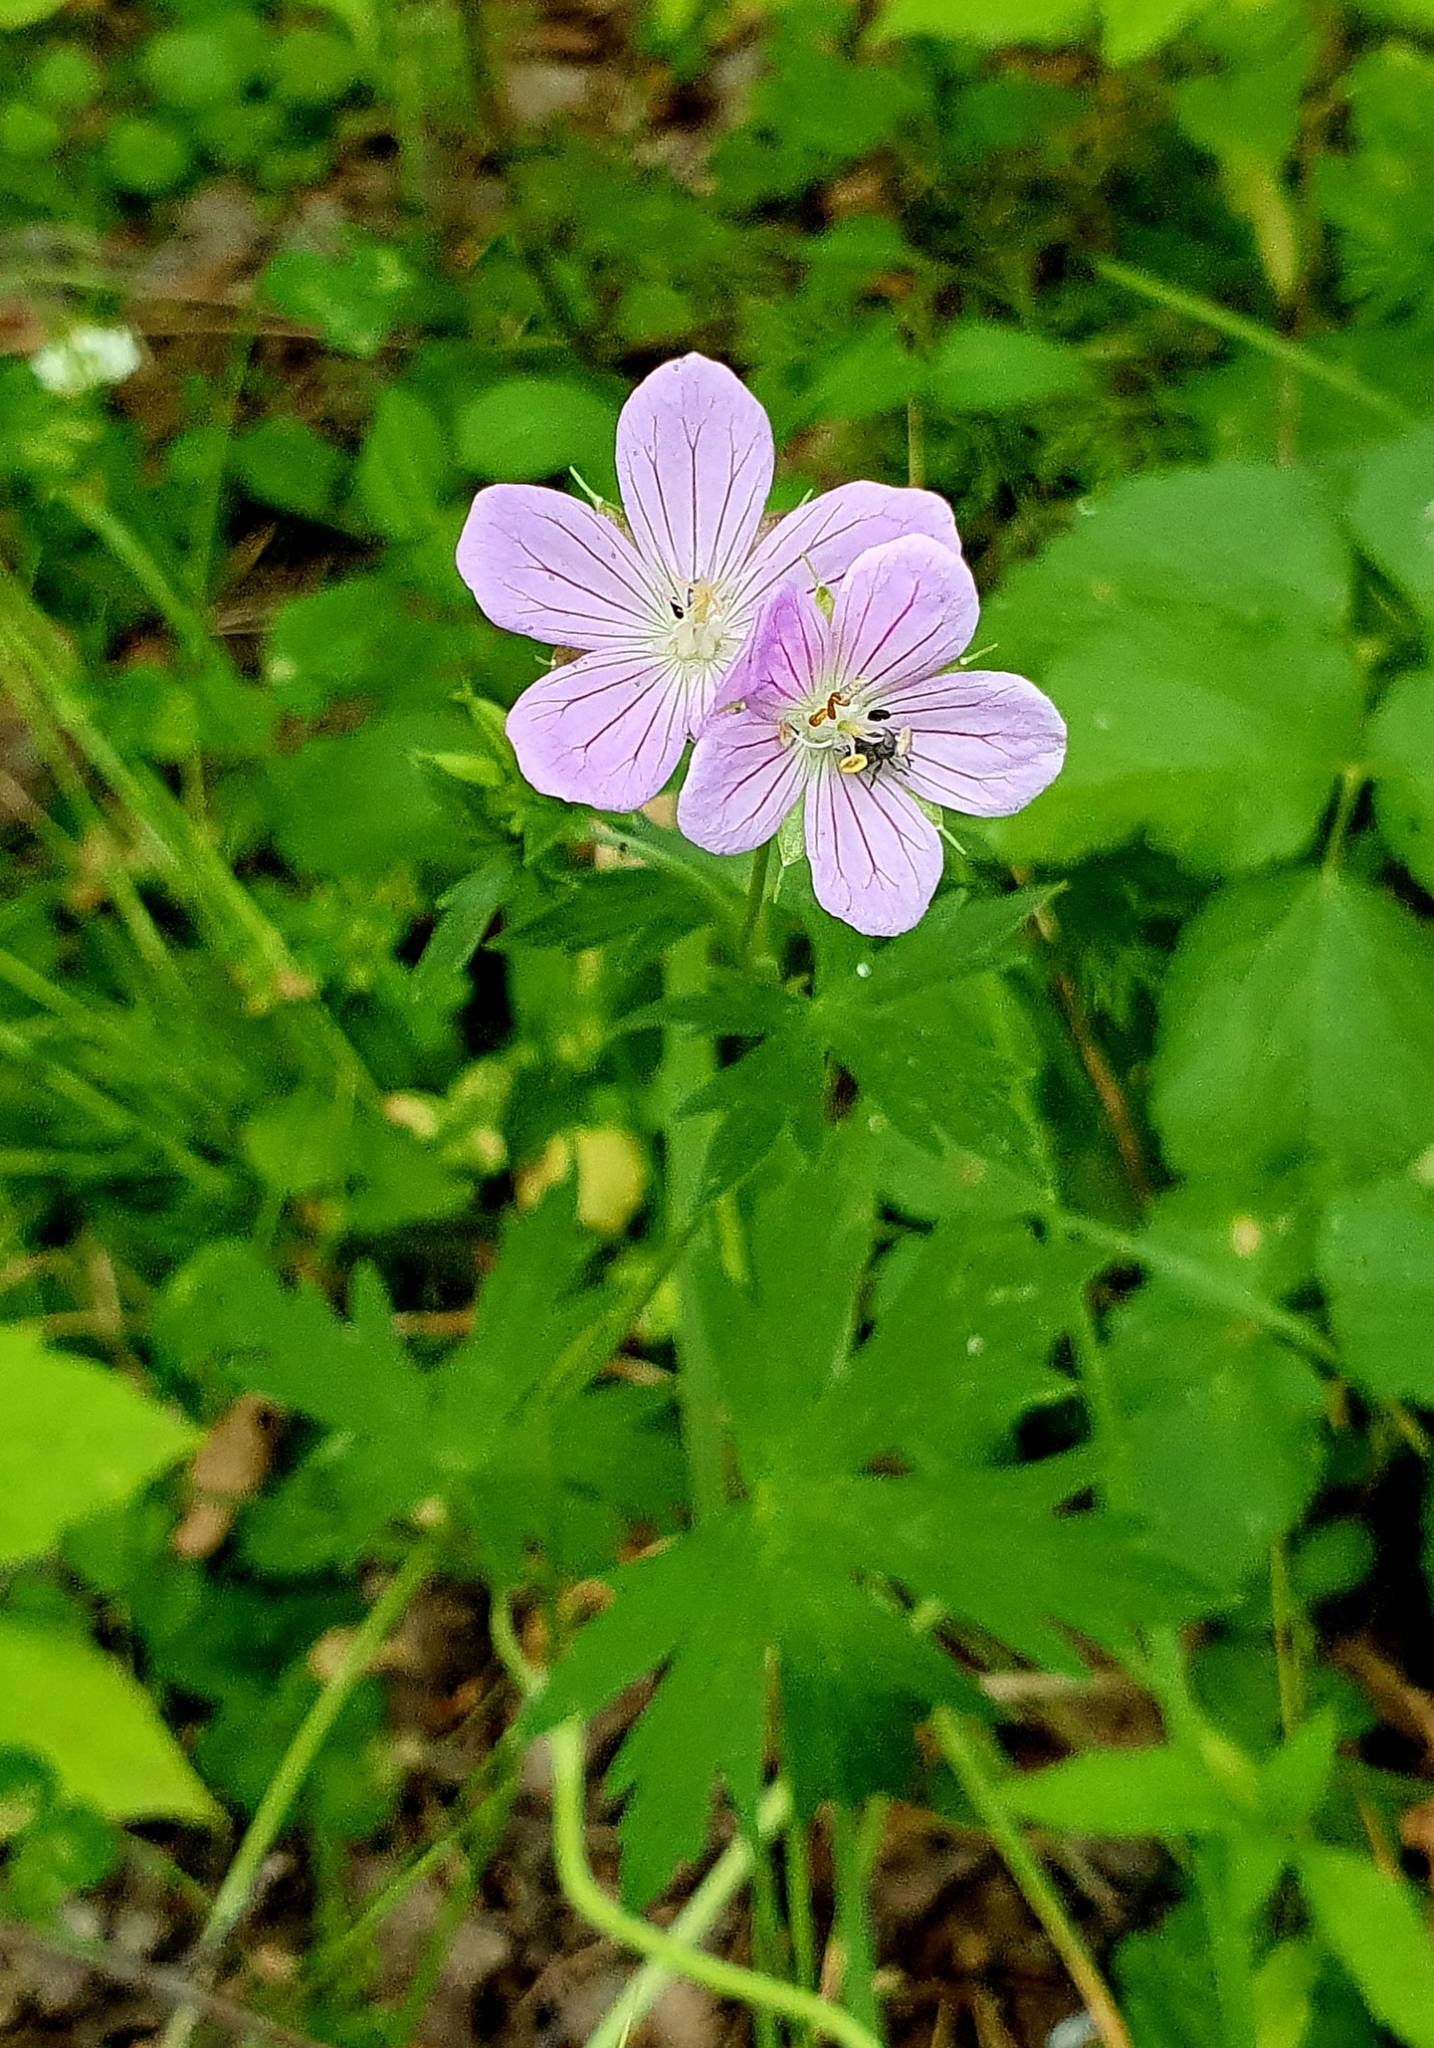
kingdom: Plantae
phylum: Tracheophyta
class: Magnoliopsida
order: Geraniales
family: Geraniaceae
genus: Geranium
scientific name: Geranium collinum
